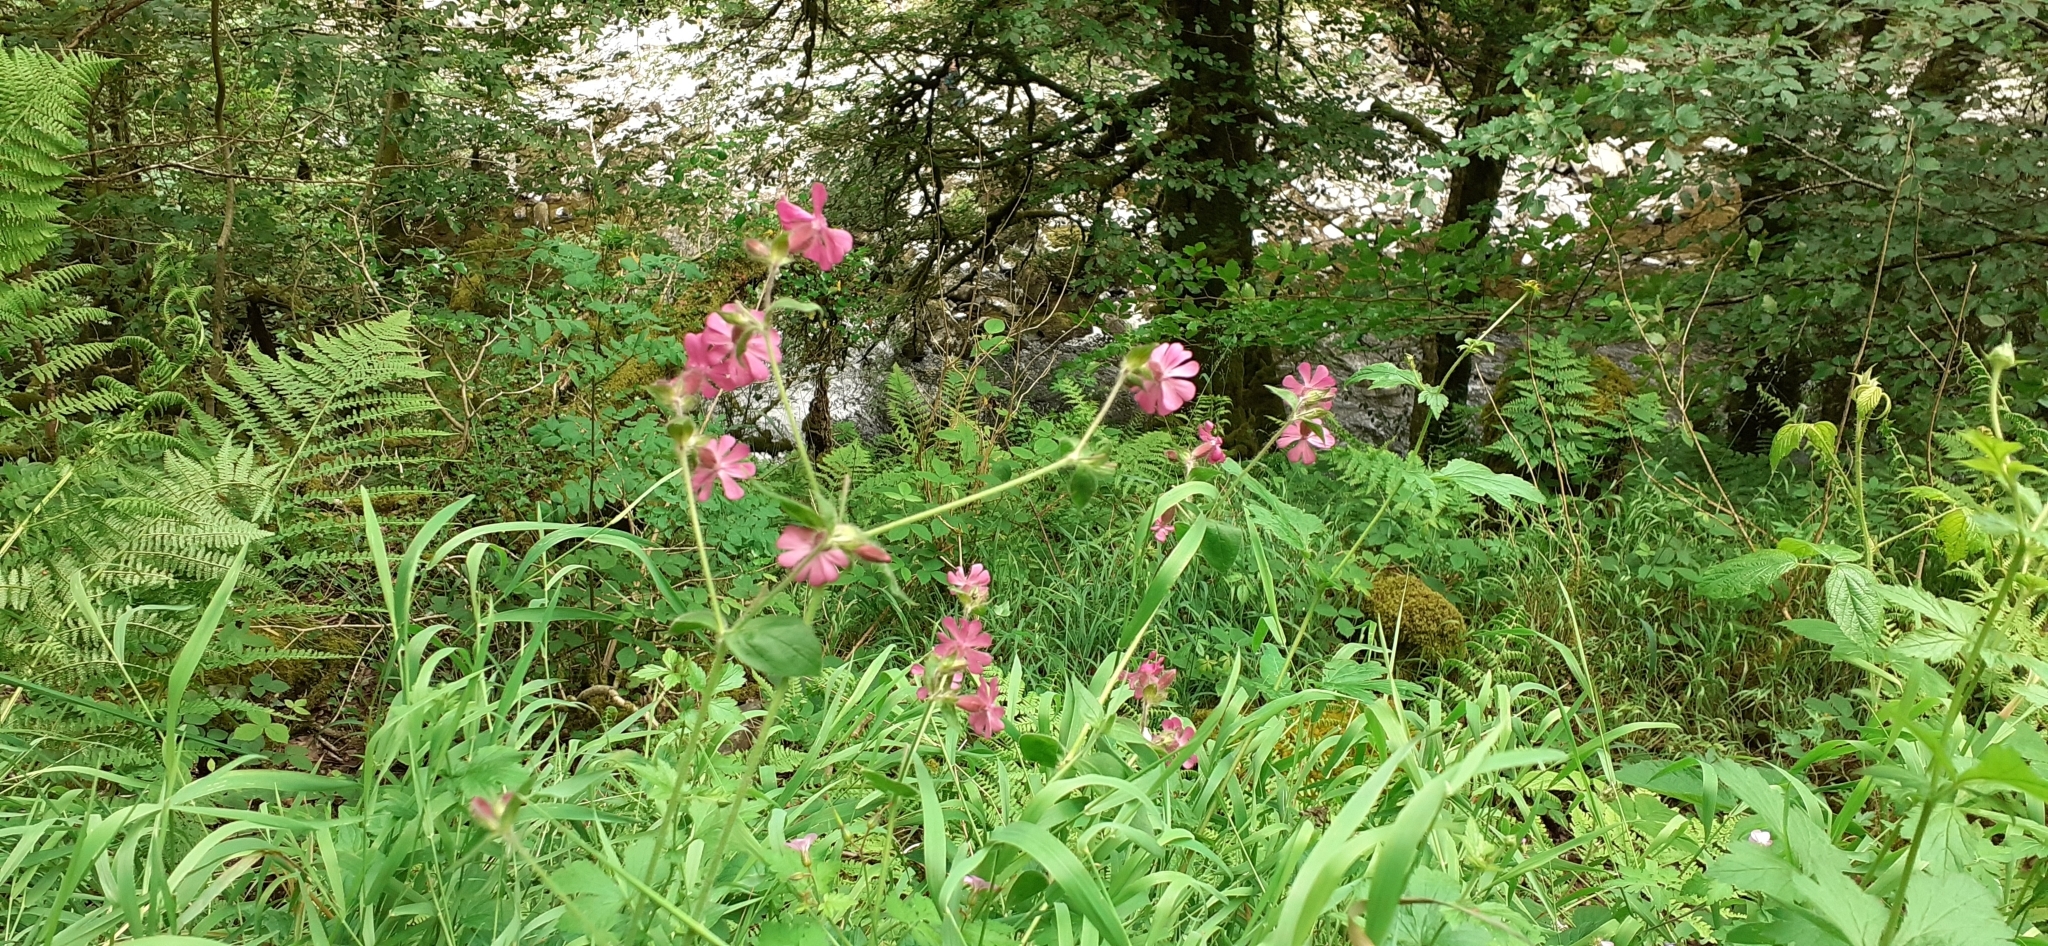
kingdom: Plantae
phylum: Tracheophyta
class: Magnoliopsida
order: Caryophyllales
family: Caryophyllaceae
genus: Silene
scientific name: Silene dioica
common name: Red campion
